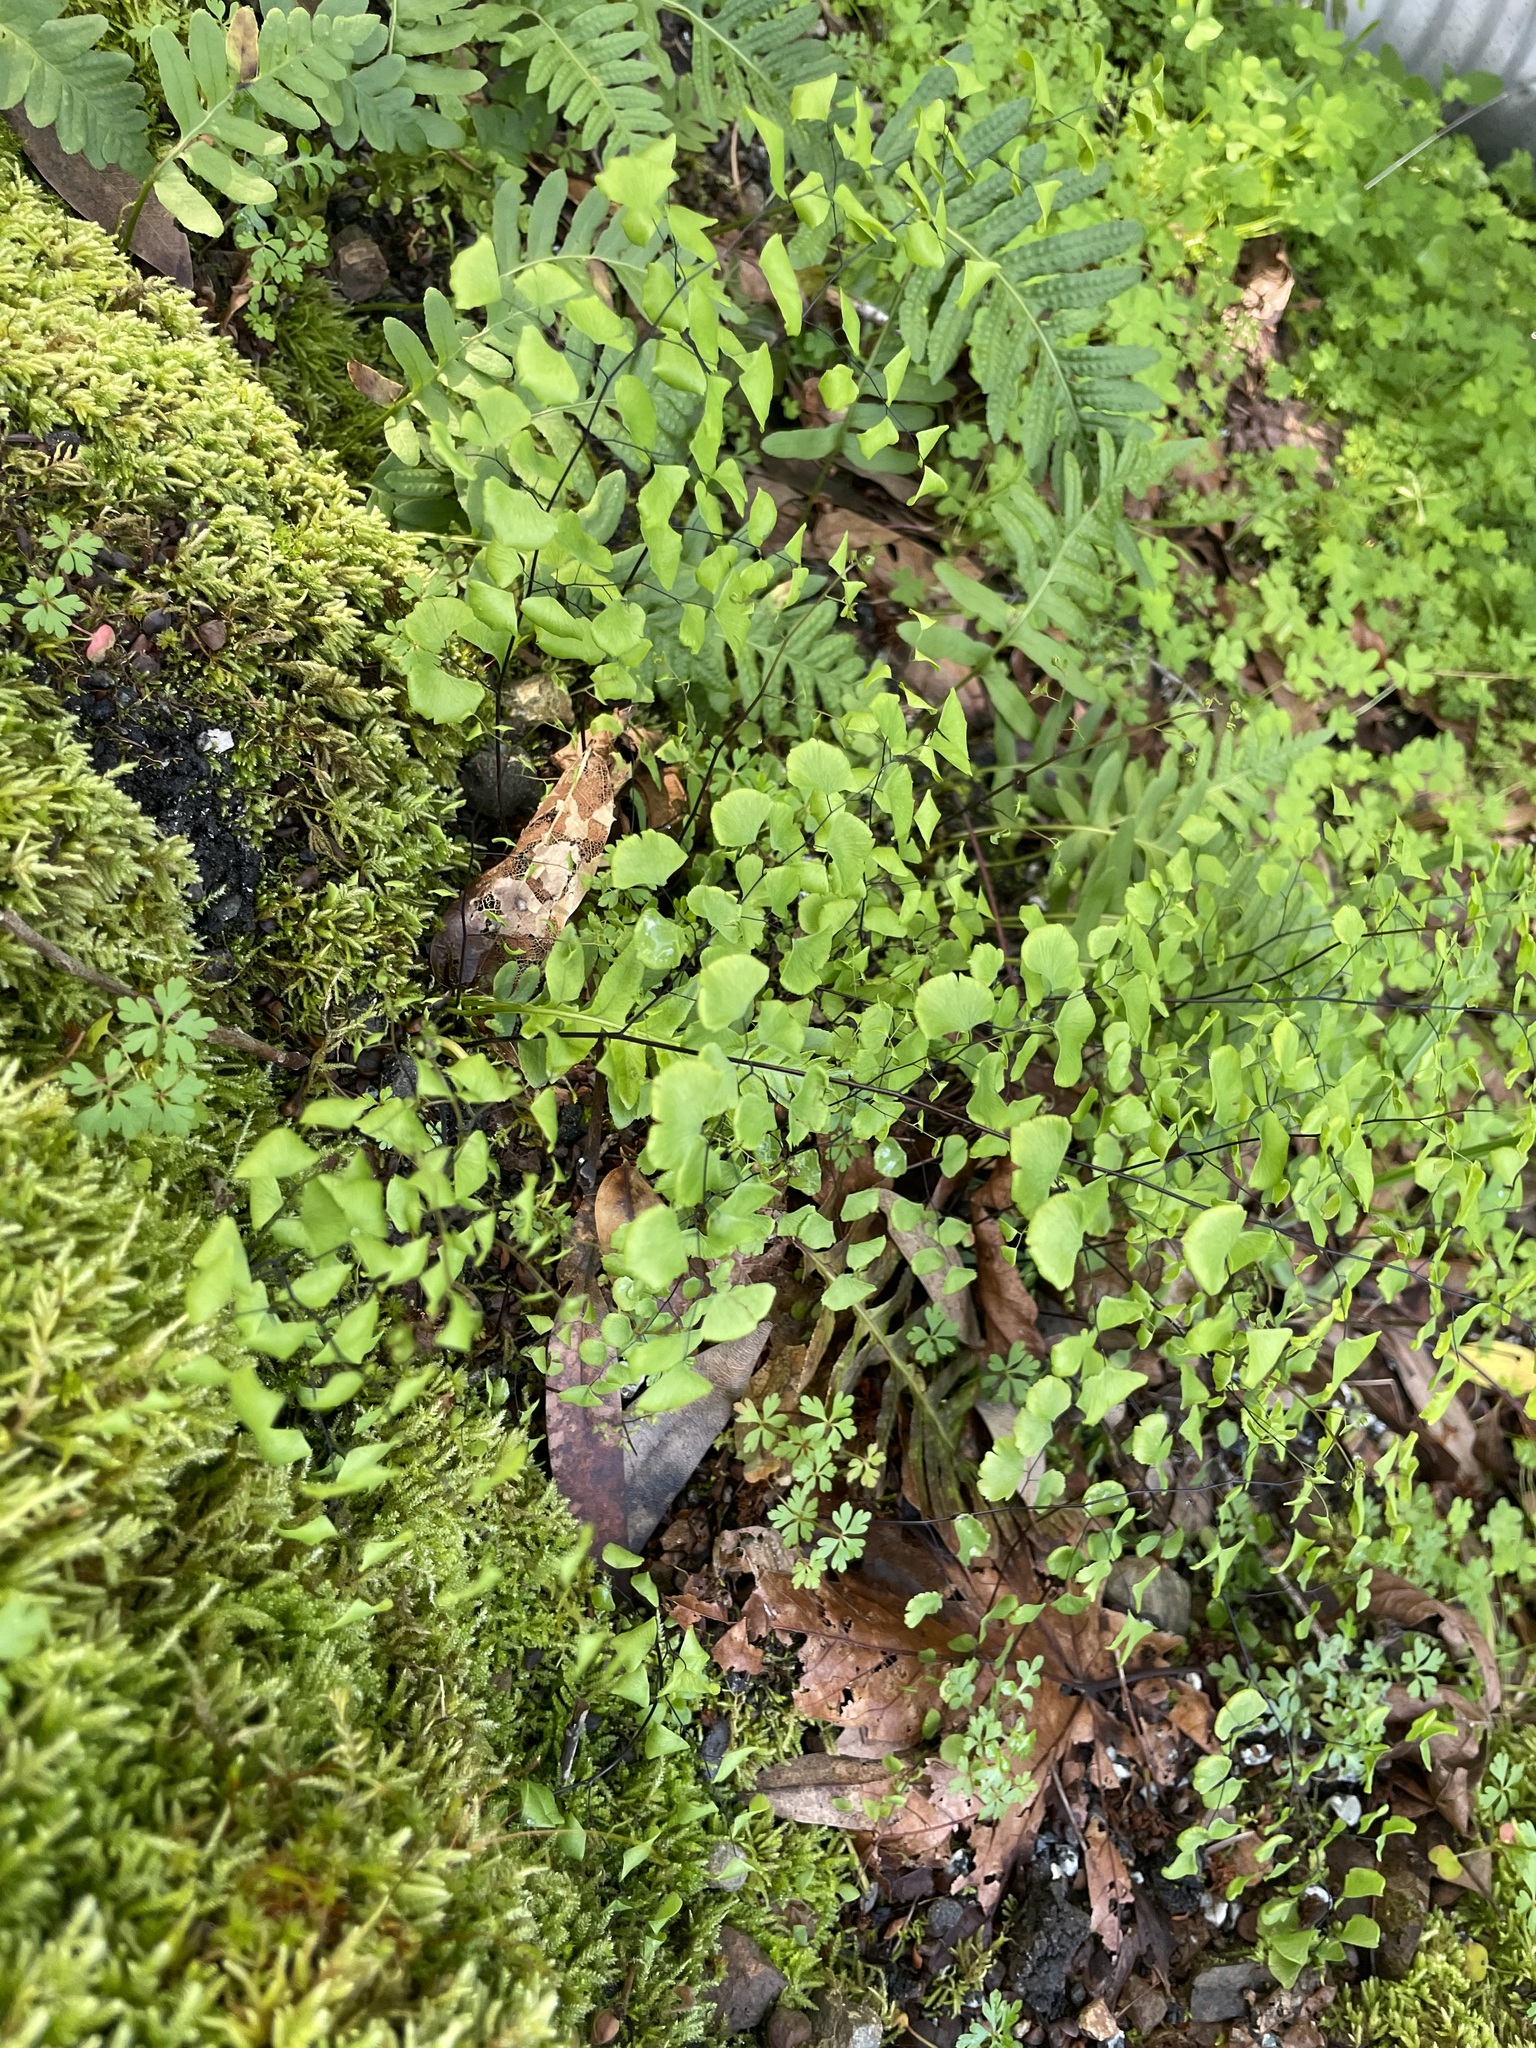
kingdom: Plantae
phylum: Tracheophyta
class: Polypodiopsida
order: Polypodiales
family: Pteridaceae
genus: Adiantum
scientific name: Adiantum jordanii
